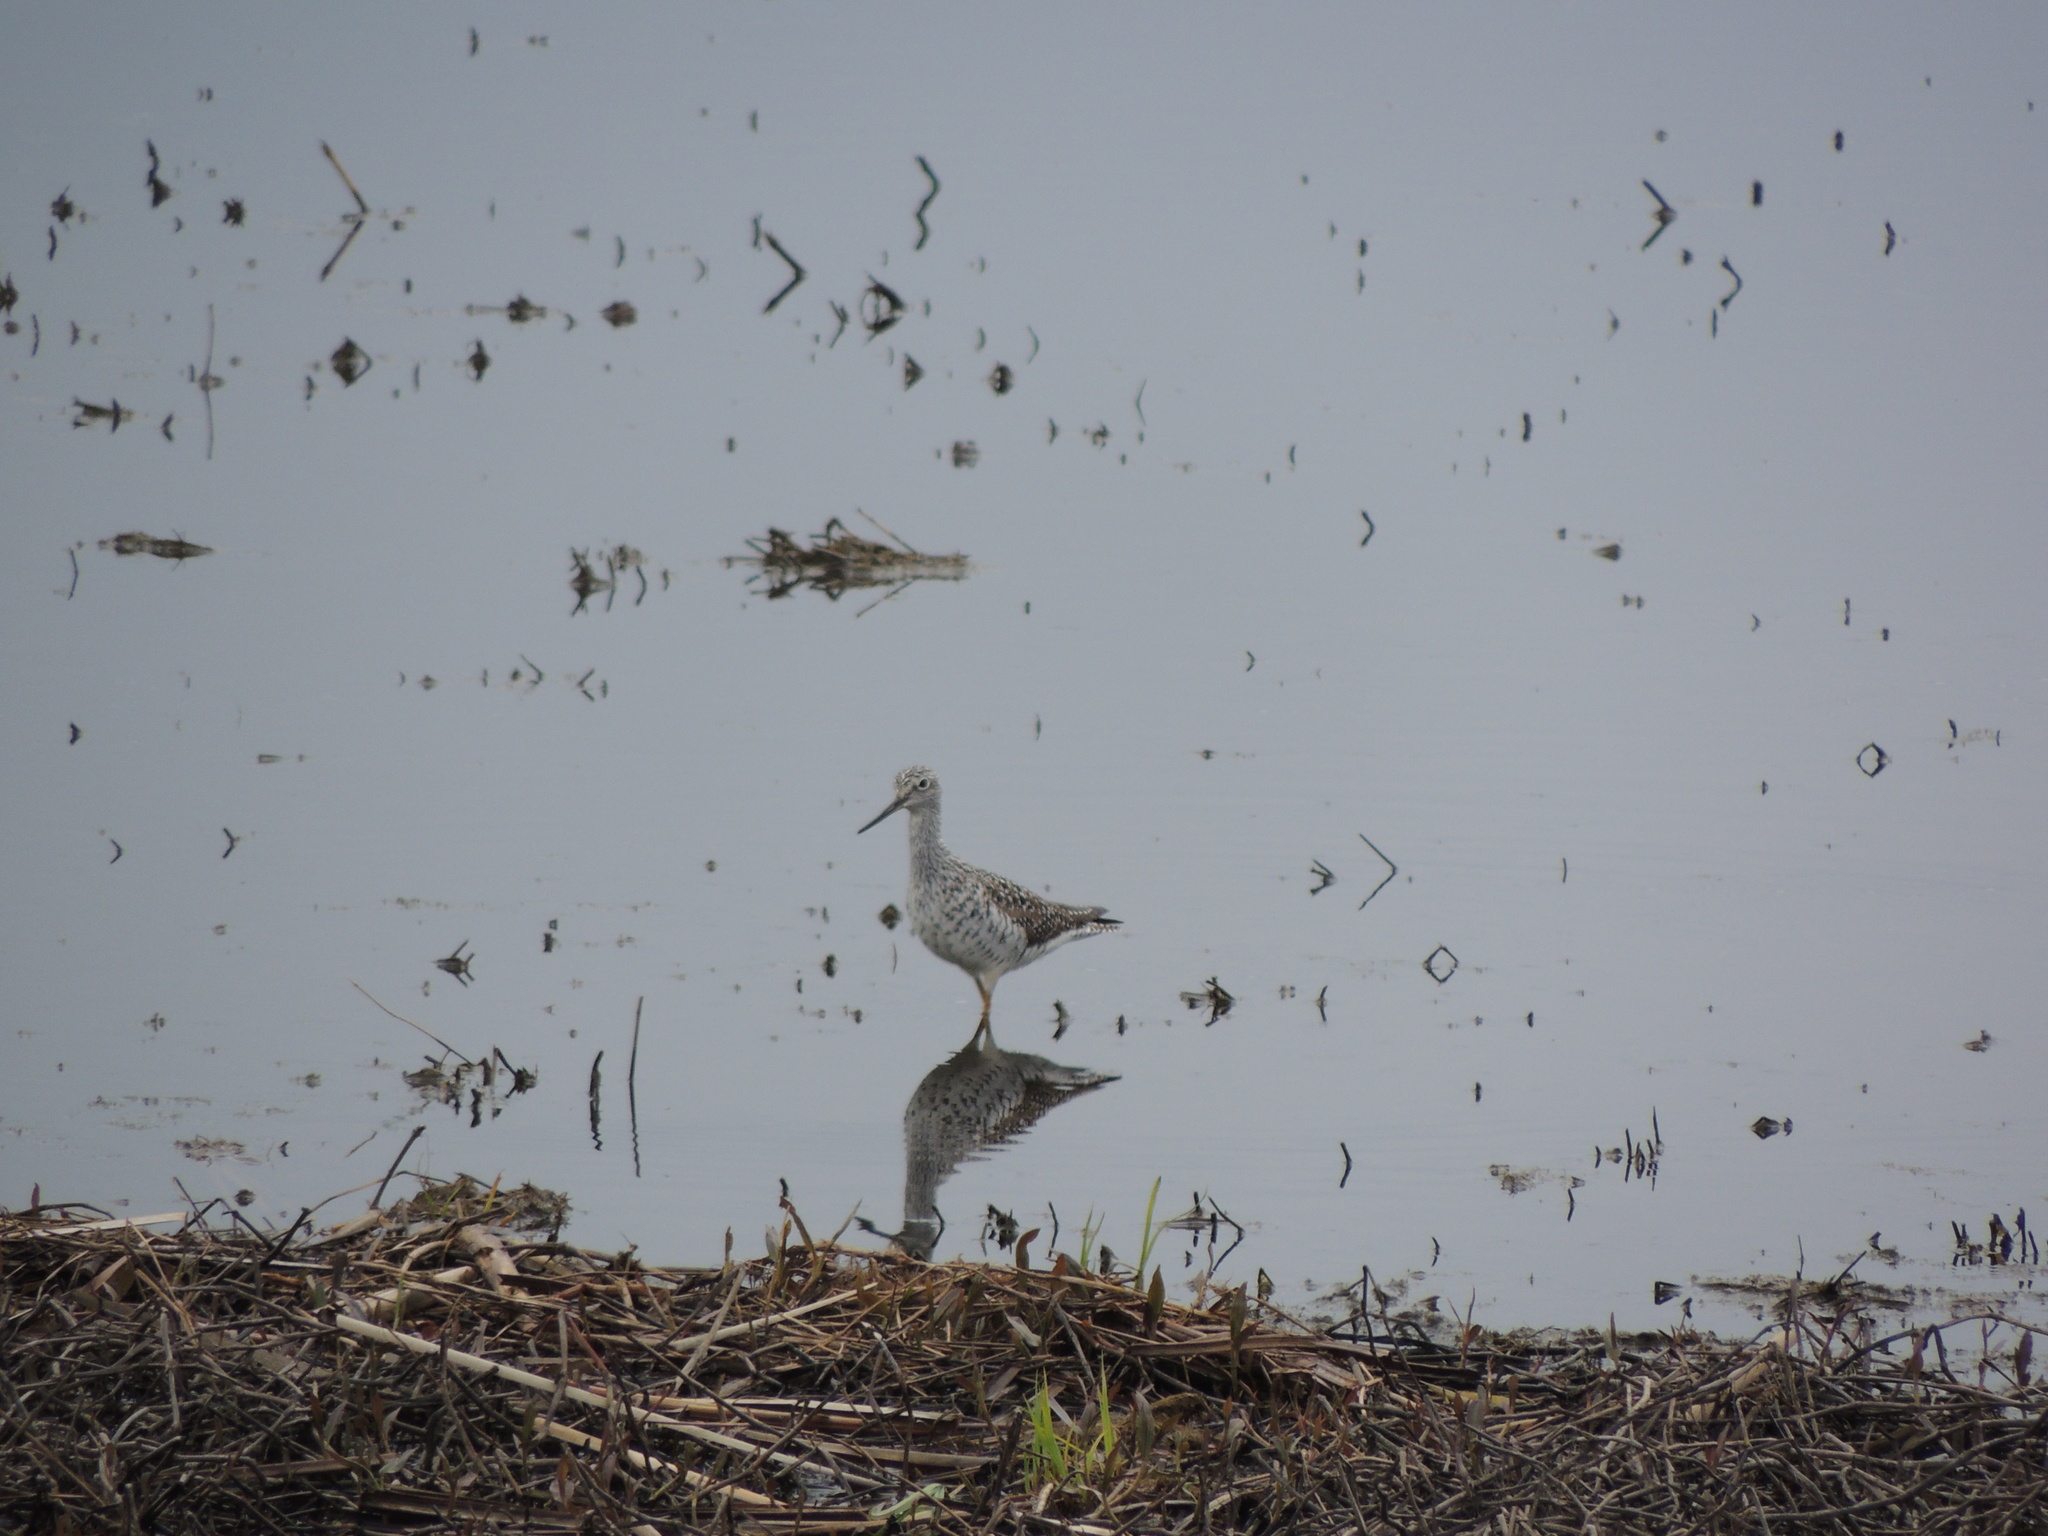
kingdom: Animalia
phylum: Chordata
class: Aves
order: Charadriiformes
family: Scolopacidae
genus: Tringa
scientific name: Tringa melanoleuca
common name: Greater yellowlegs
